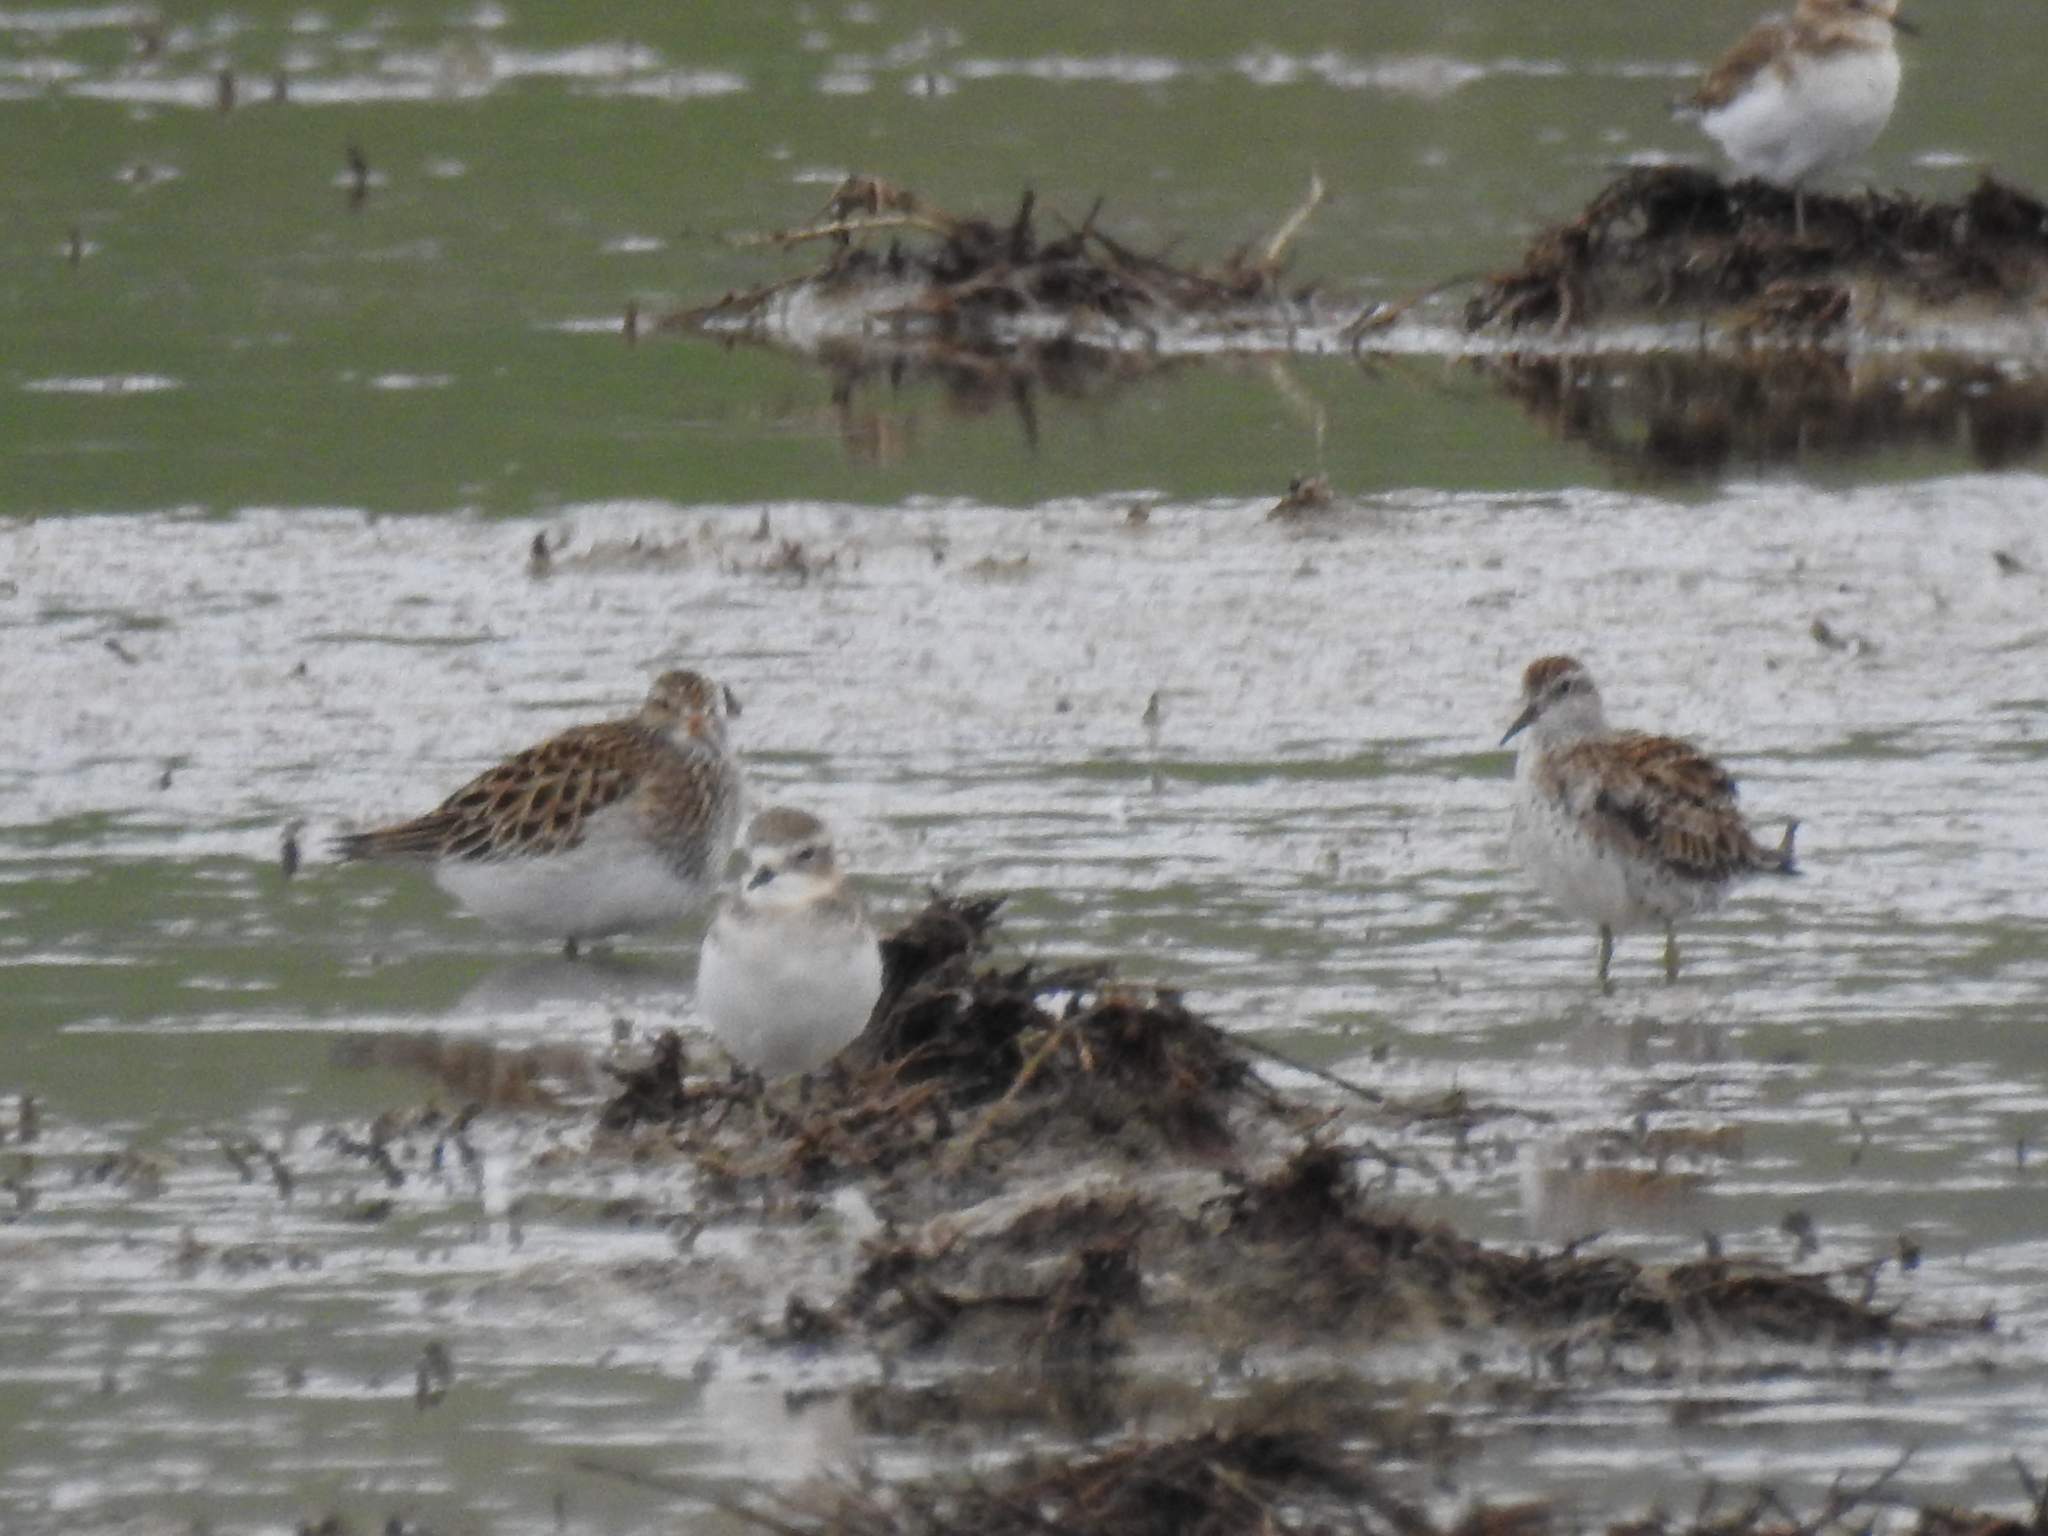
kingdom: Animalia
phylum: Chordata
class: Aves
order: Charadriiformes
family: Scolopacidae
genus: Calidris
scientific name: Calidris acuminata
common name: Sharp-tailed sandpiper
